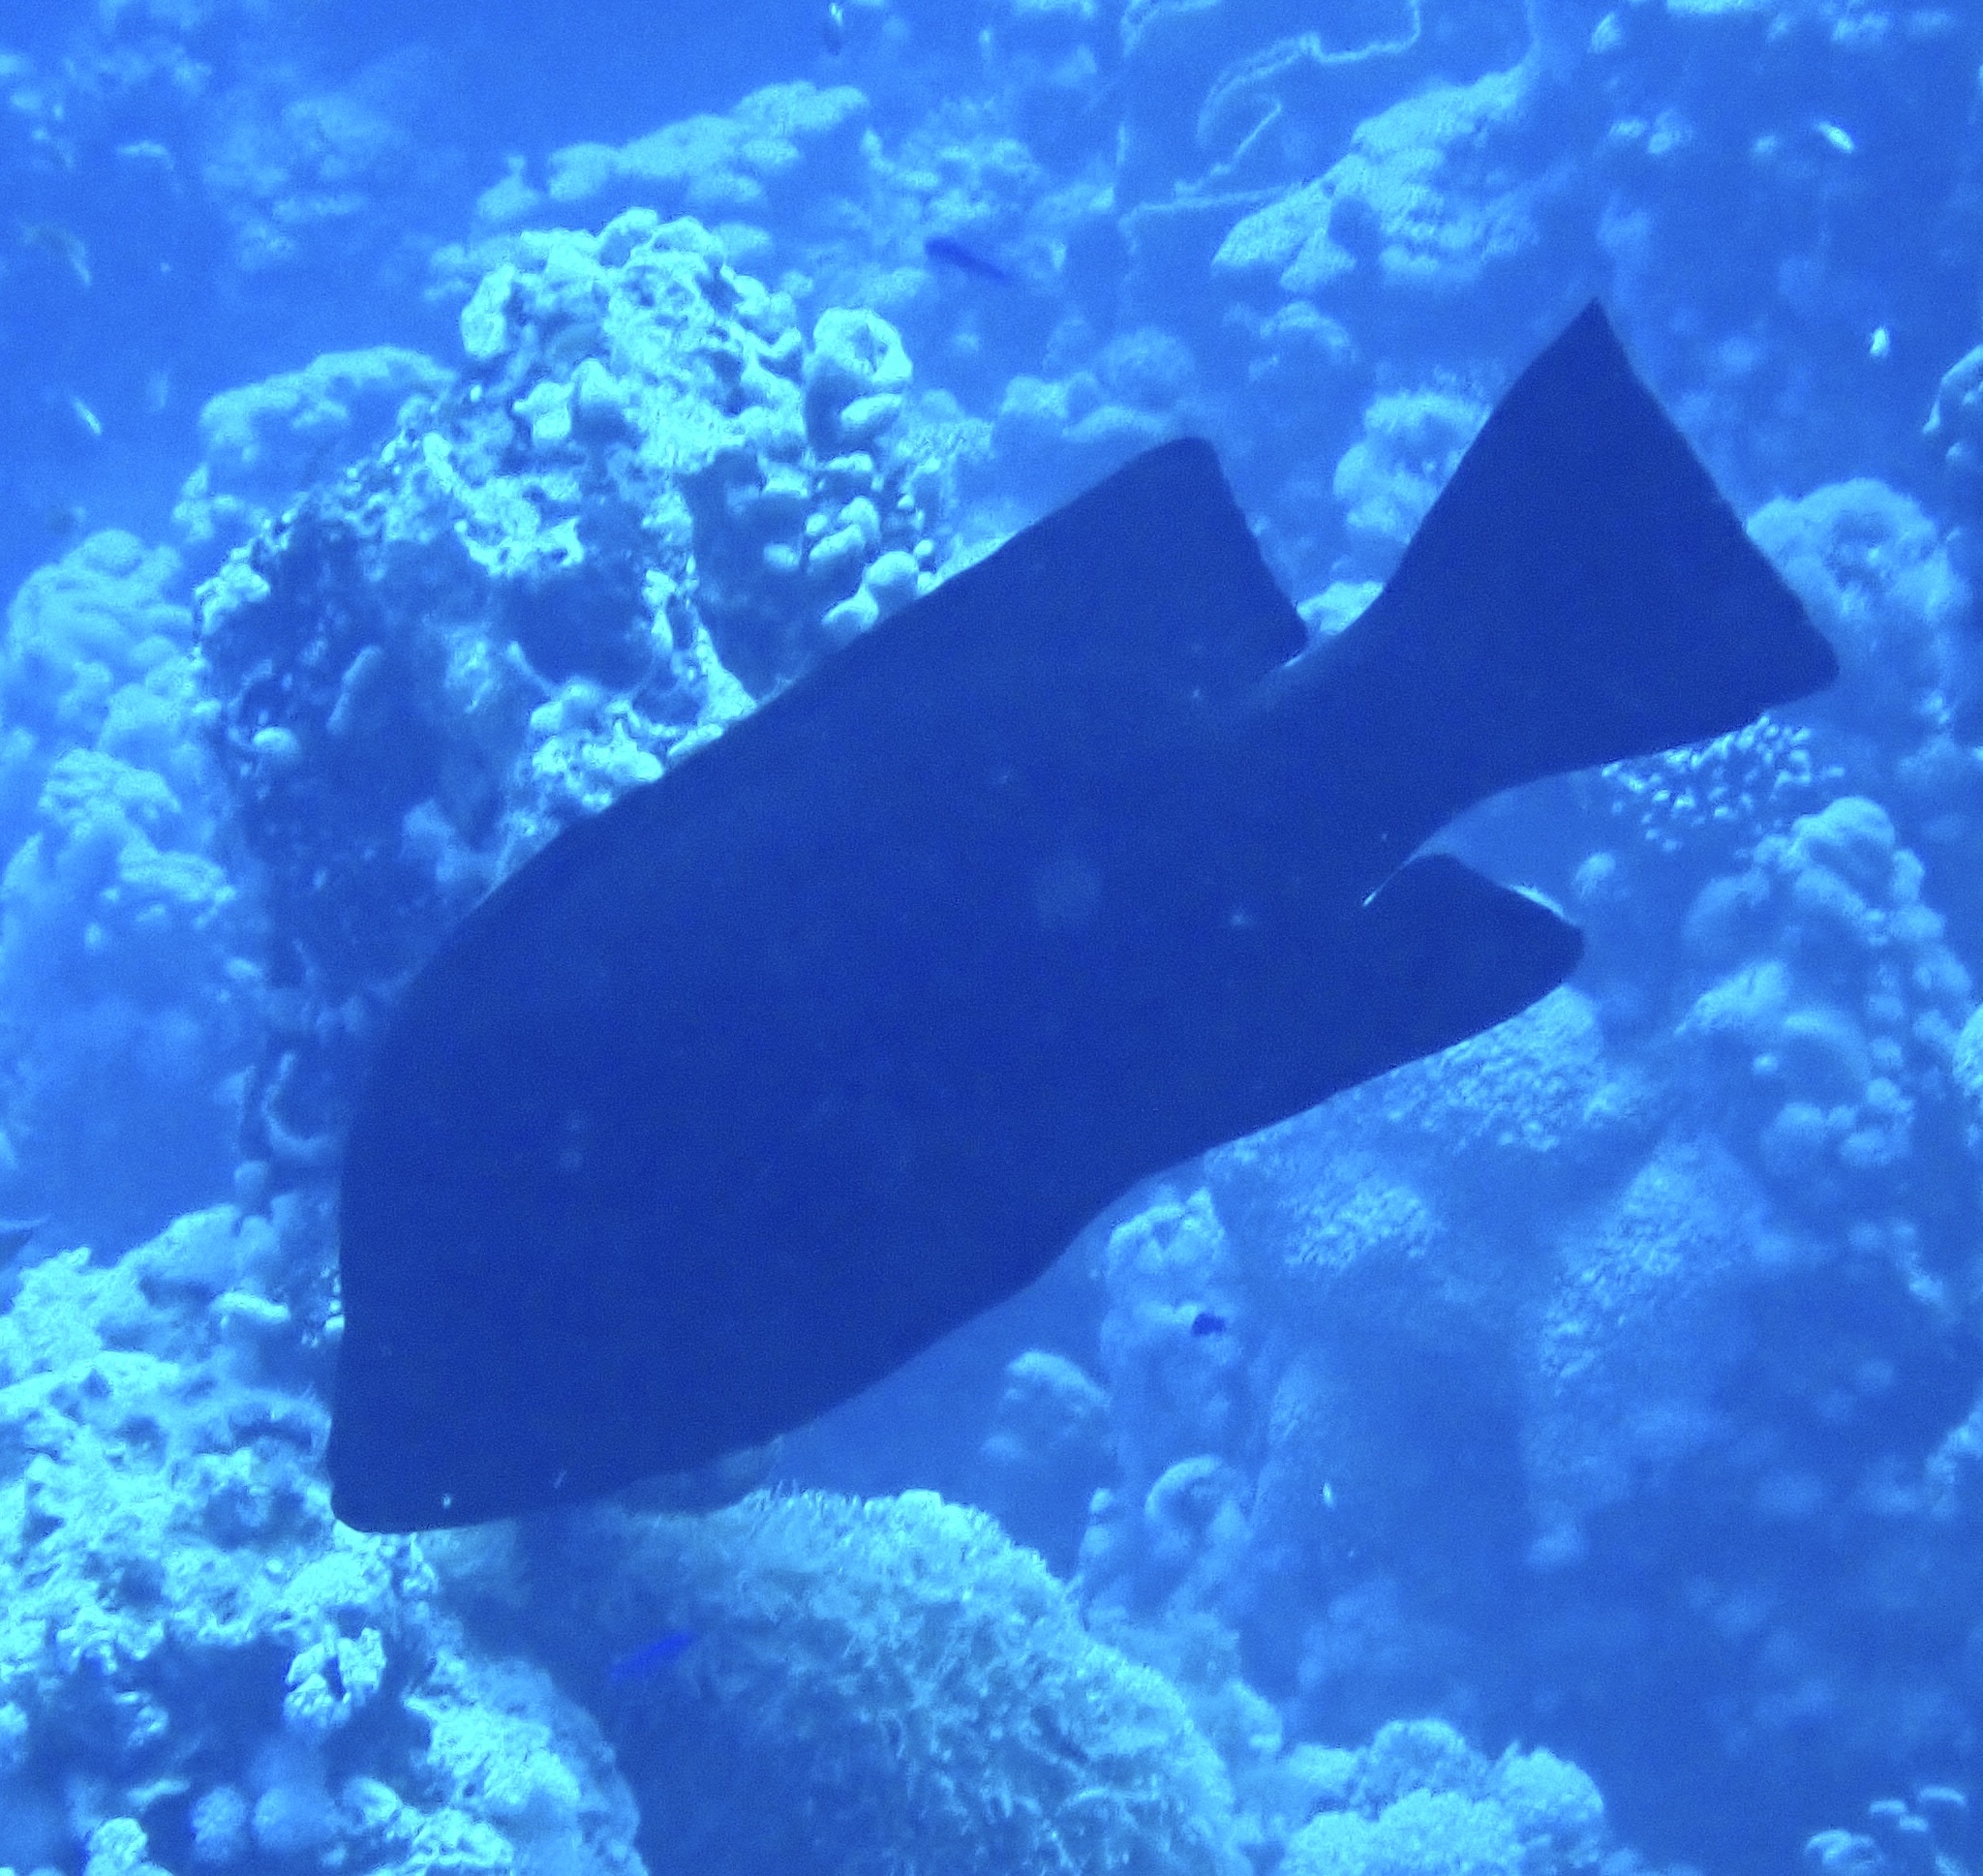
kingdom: Animalia
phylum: Chordata
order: Perciformes
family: Serranidae
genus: Aethaloperca
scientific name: Aethaloperca rogaa
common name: Redmouth grouper
